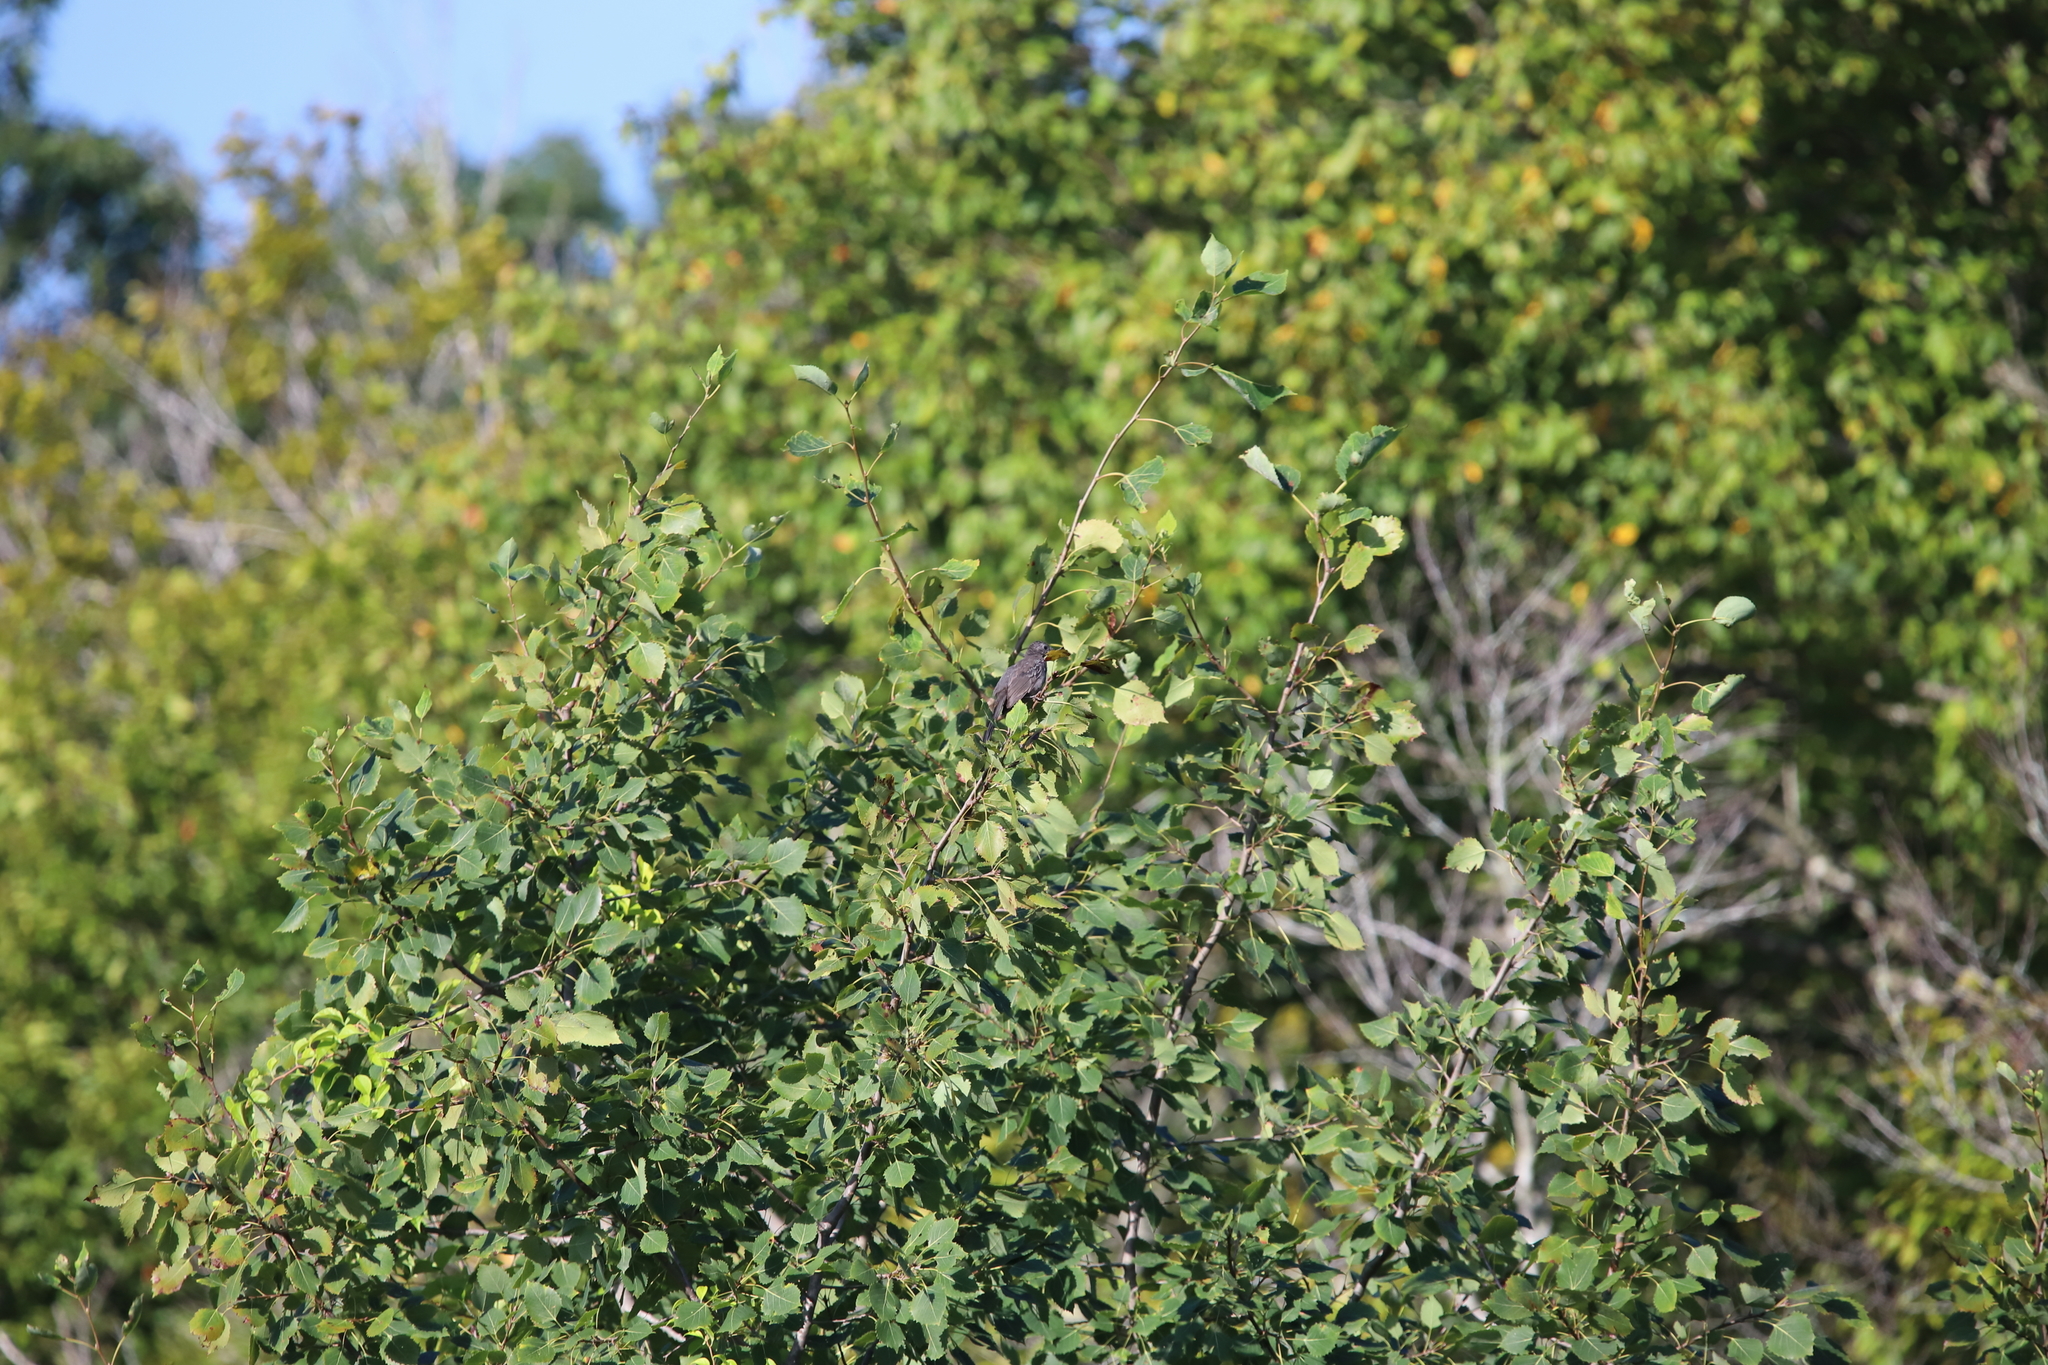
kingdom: Animalia
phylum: Chordata
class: Aves
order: Passeriformes
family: Mimidae
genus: Dumetella
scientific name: Dumetella carolinensis
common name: Gray catbird
